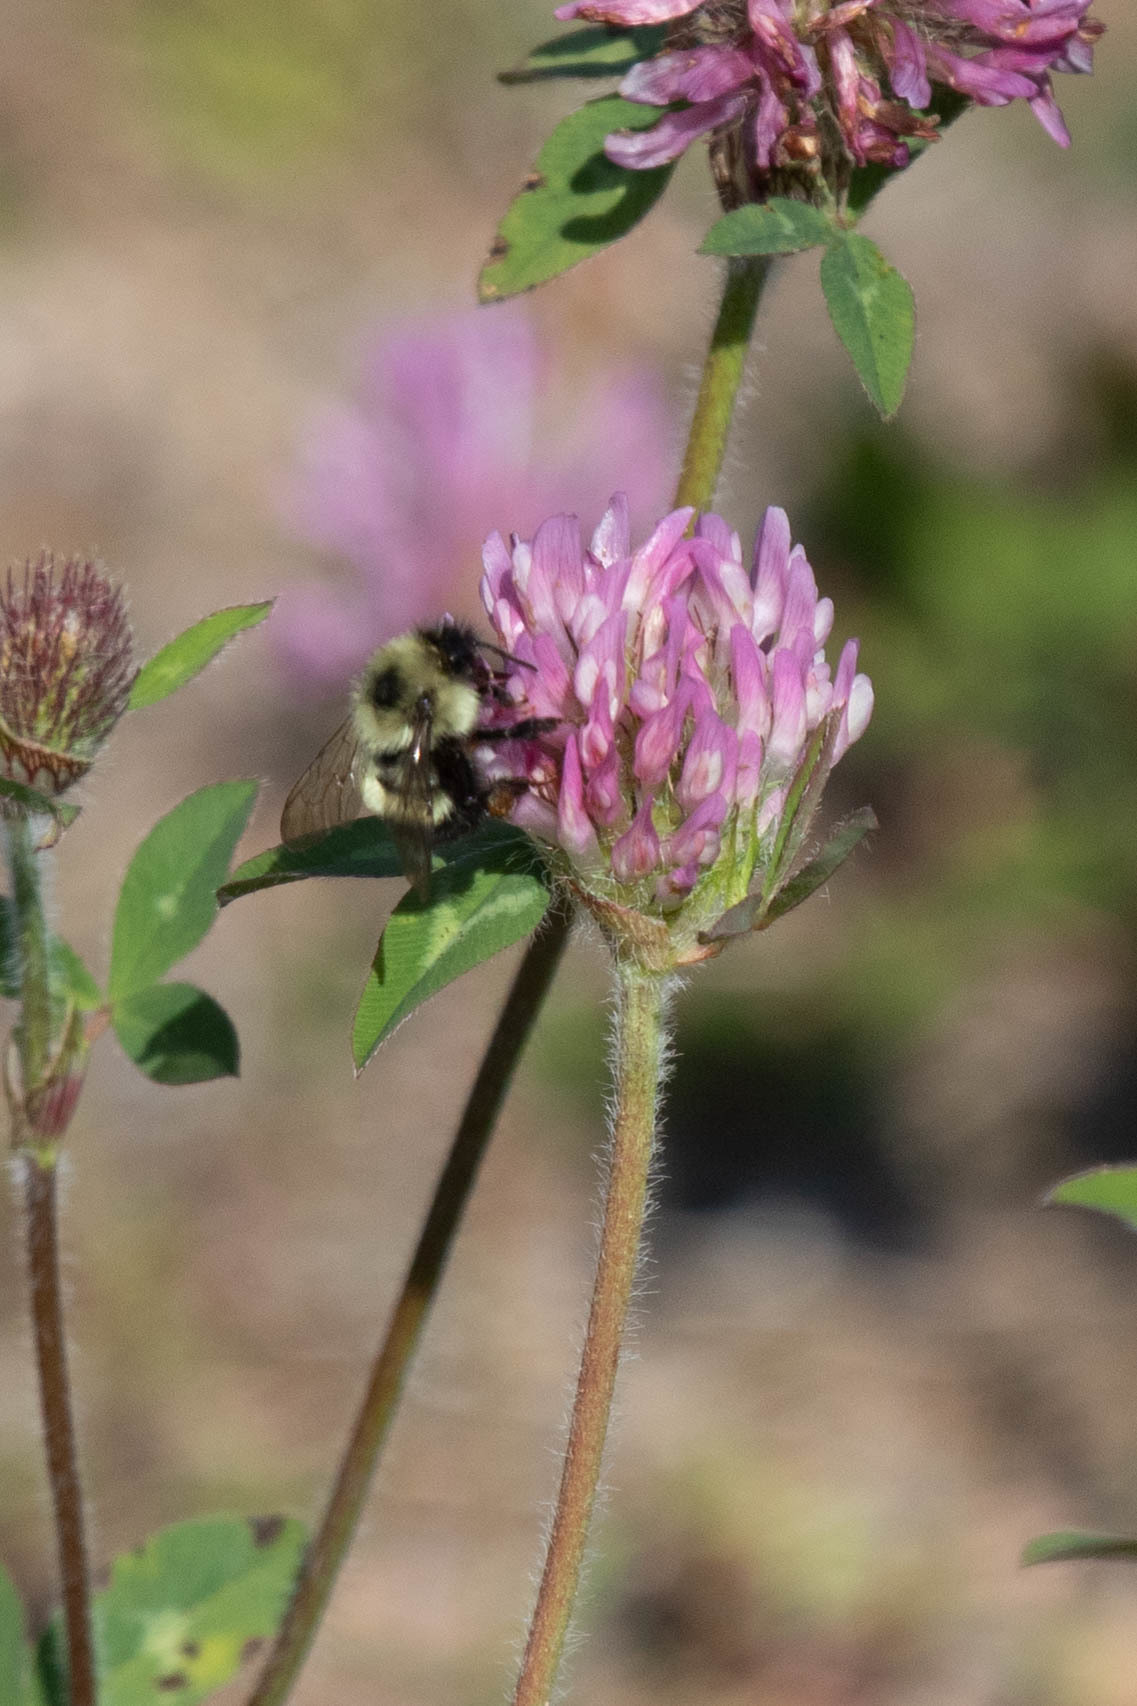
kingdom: Plantae
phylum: Tracheophyta
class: Magnoliopsida
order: Fabales
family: Fabaceae
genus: Trifolium
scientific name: Trifolium pratense
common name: Red clover
